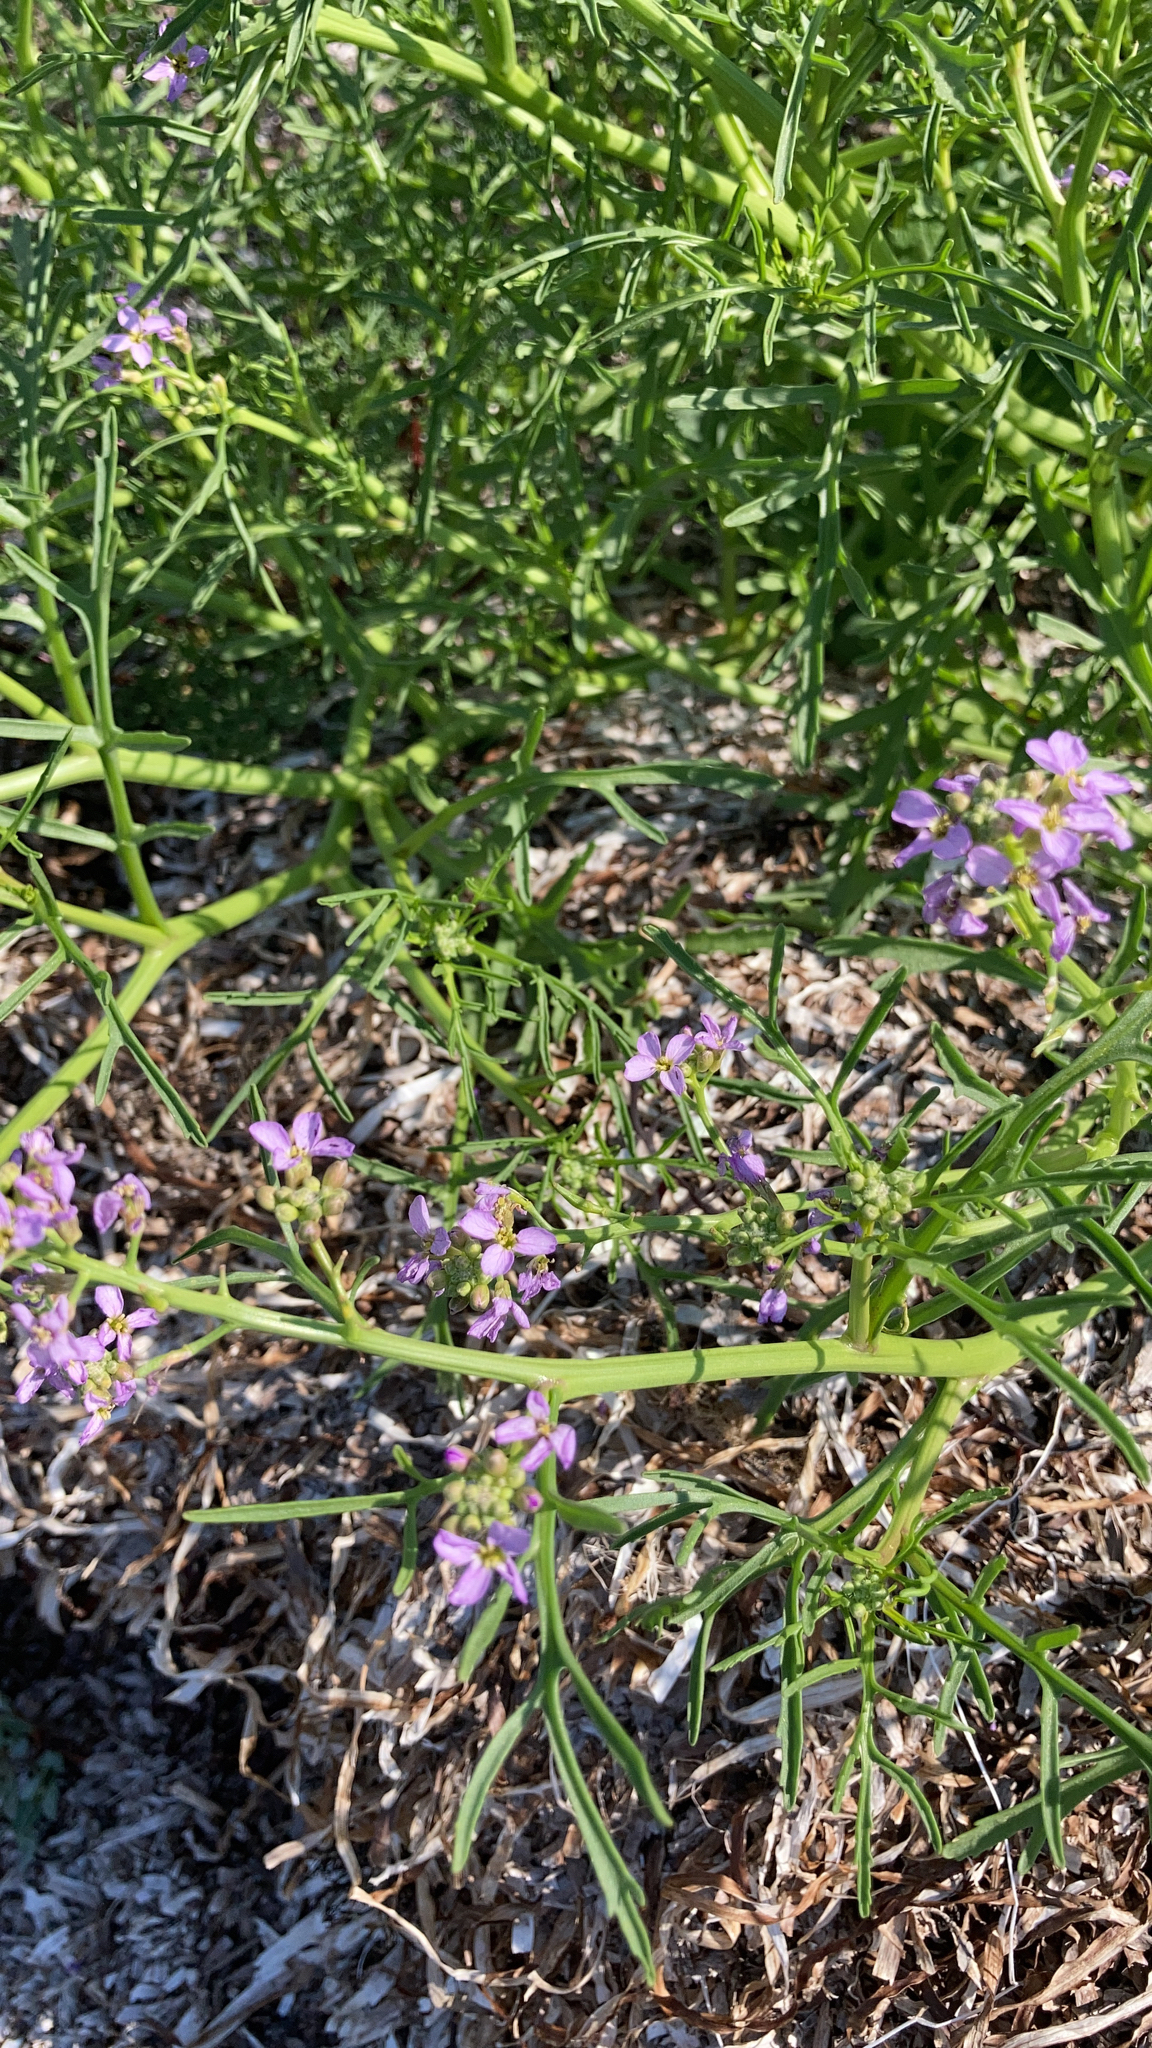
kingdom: Plantae
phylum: Tracheophyta
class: Magnoliopsida
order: Brassicales
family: Brassicaceae
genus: Cakile
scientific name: Cakile maritima
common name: Sea rocket
